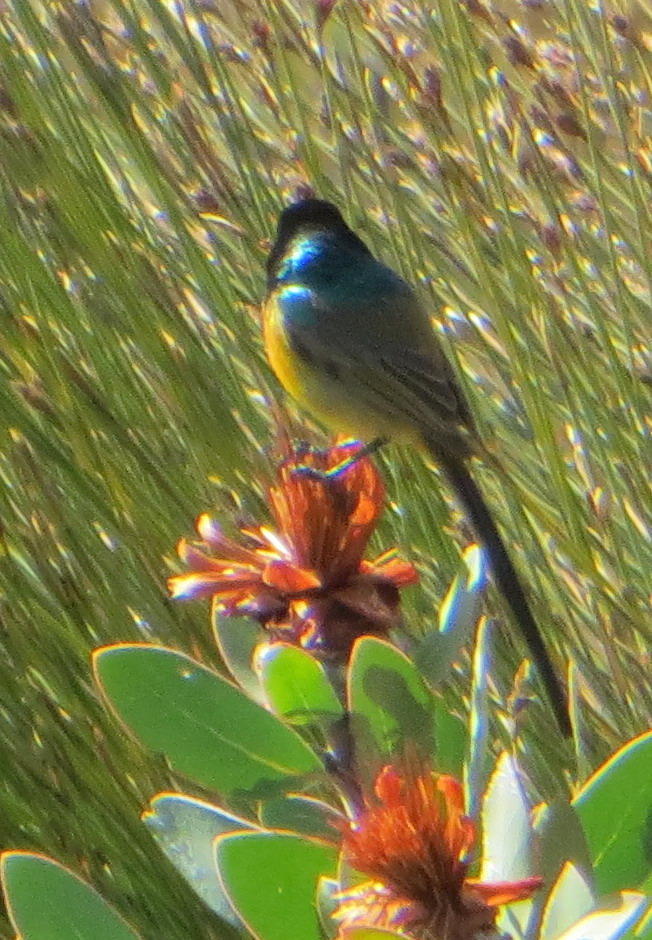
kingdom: Animalia
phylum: Chordata
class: Aves
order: Passeriformes
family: Nectariniidae
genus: Anthobaphes
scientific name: Anthobaphes violacea
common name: Orange-breasted sunbird
